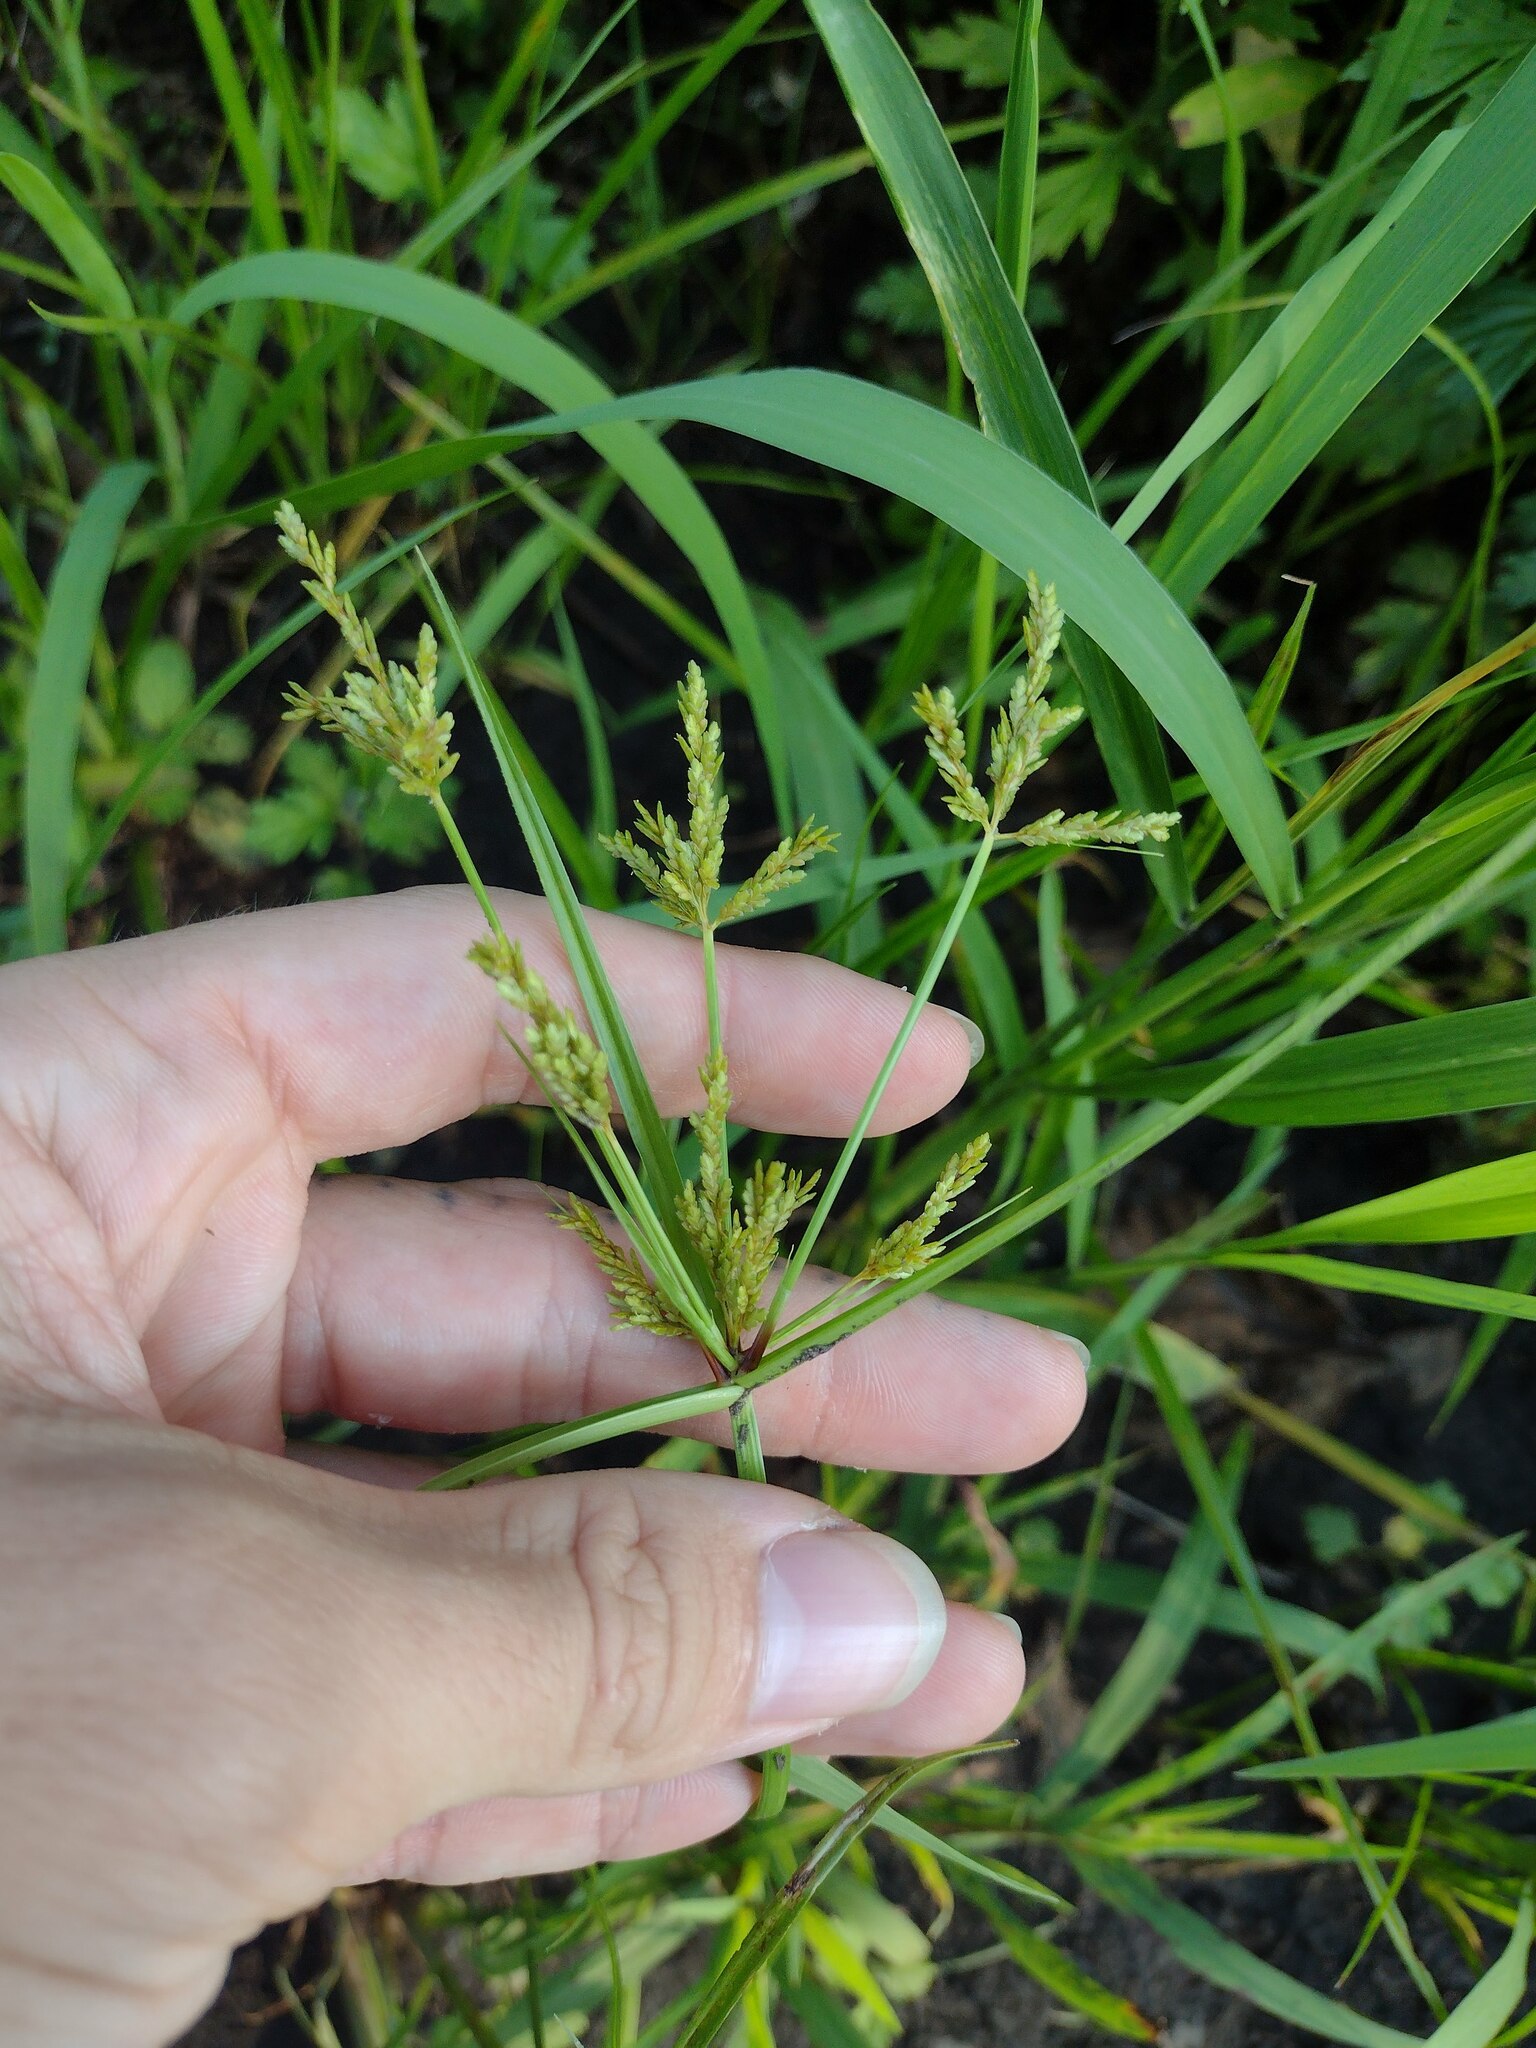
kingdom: Plantae
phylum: Tracheophyta
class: Liliopsida
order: Poales
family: Cyperaceae
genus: Cyperus
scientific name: Cyperus iria
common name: Ricefield flatsedge
